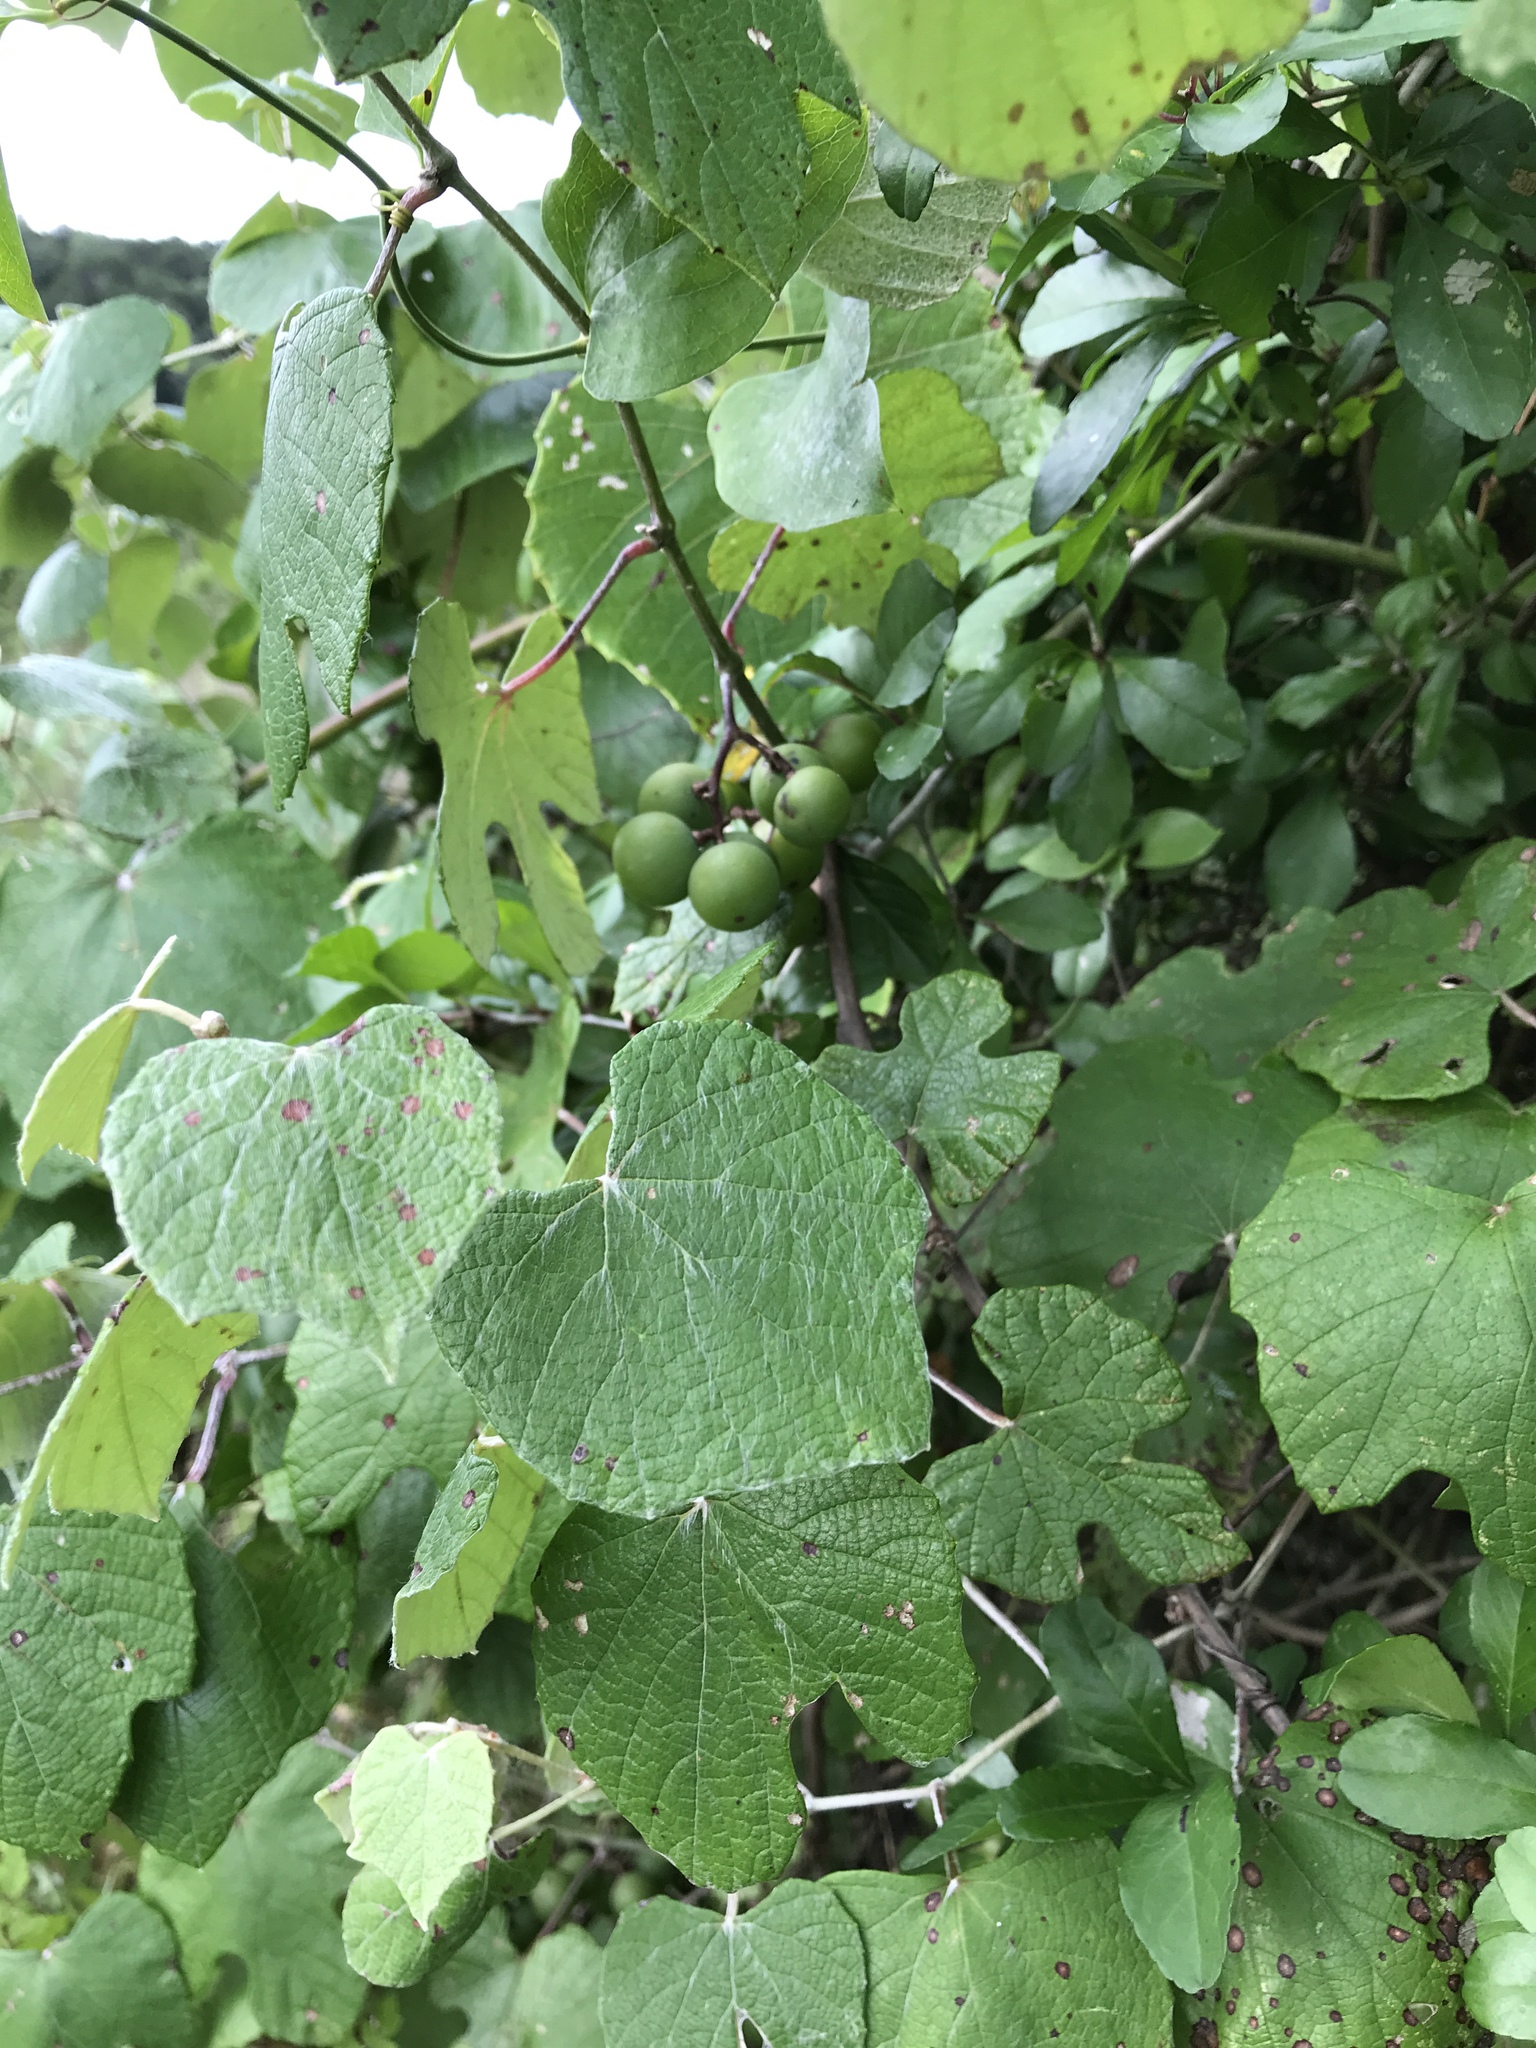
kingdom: Plantae
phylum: Tracheophyta
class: Magnoliopsida
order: Vitales
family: Vitaceae
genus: Vitis
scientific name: Vitis mustangensis
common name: Mustang grape
